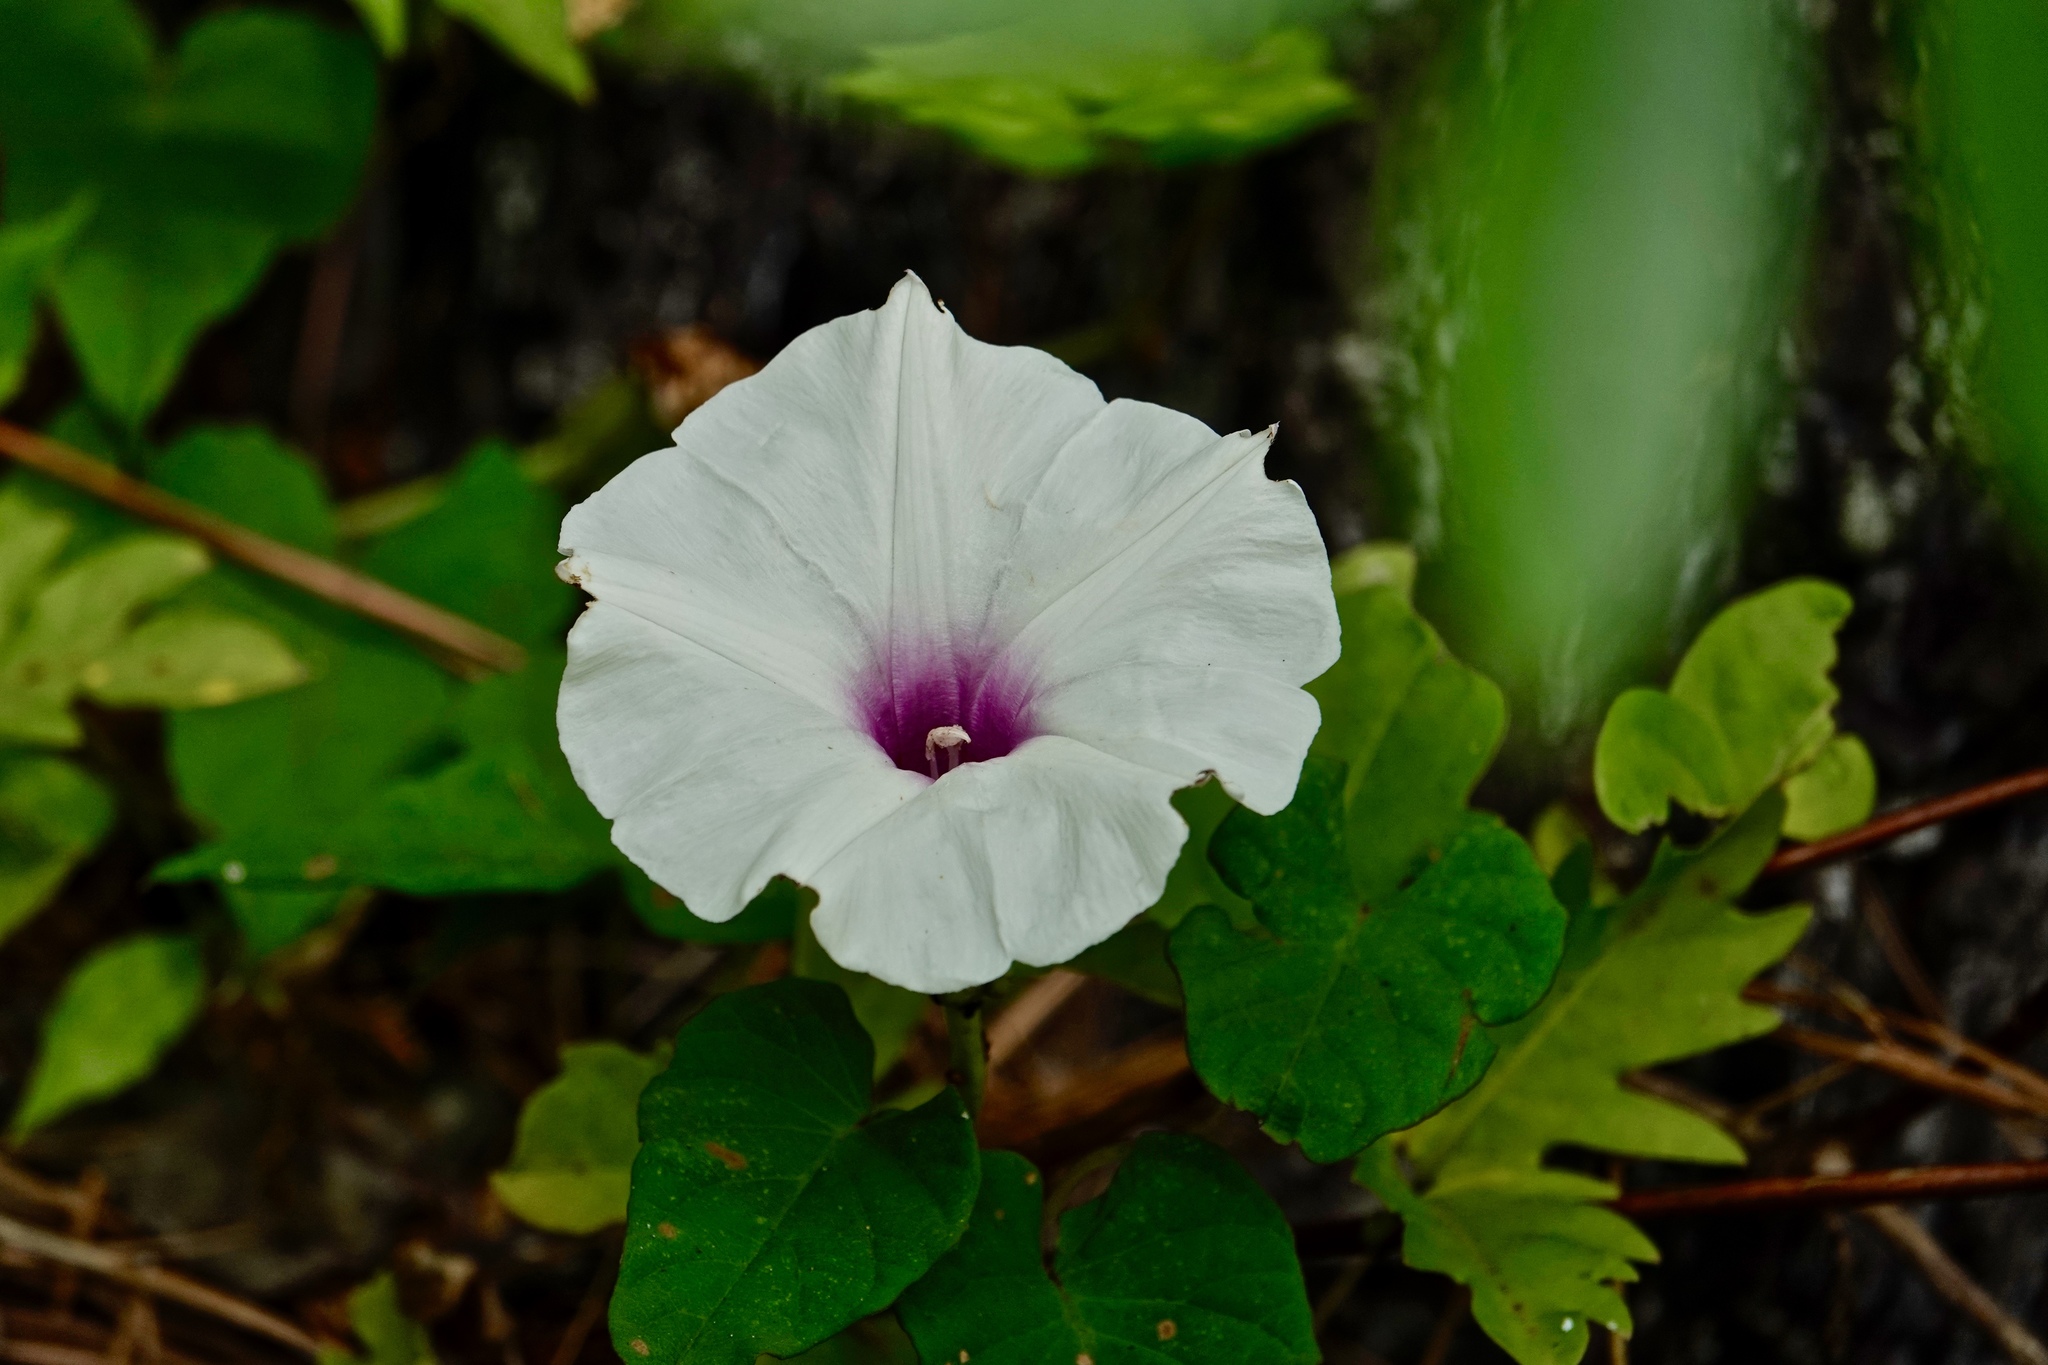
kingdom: Plantae
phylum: Tracheophyta
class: Magnoliopsida
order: Solanales
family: Convolvulaceae
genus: Ipomoea
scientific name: Ipomoea pandurata
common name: Man-of-the-earth
